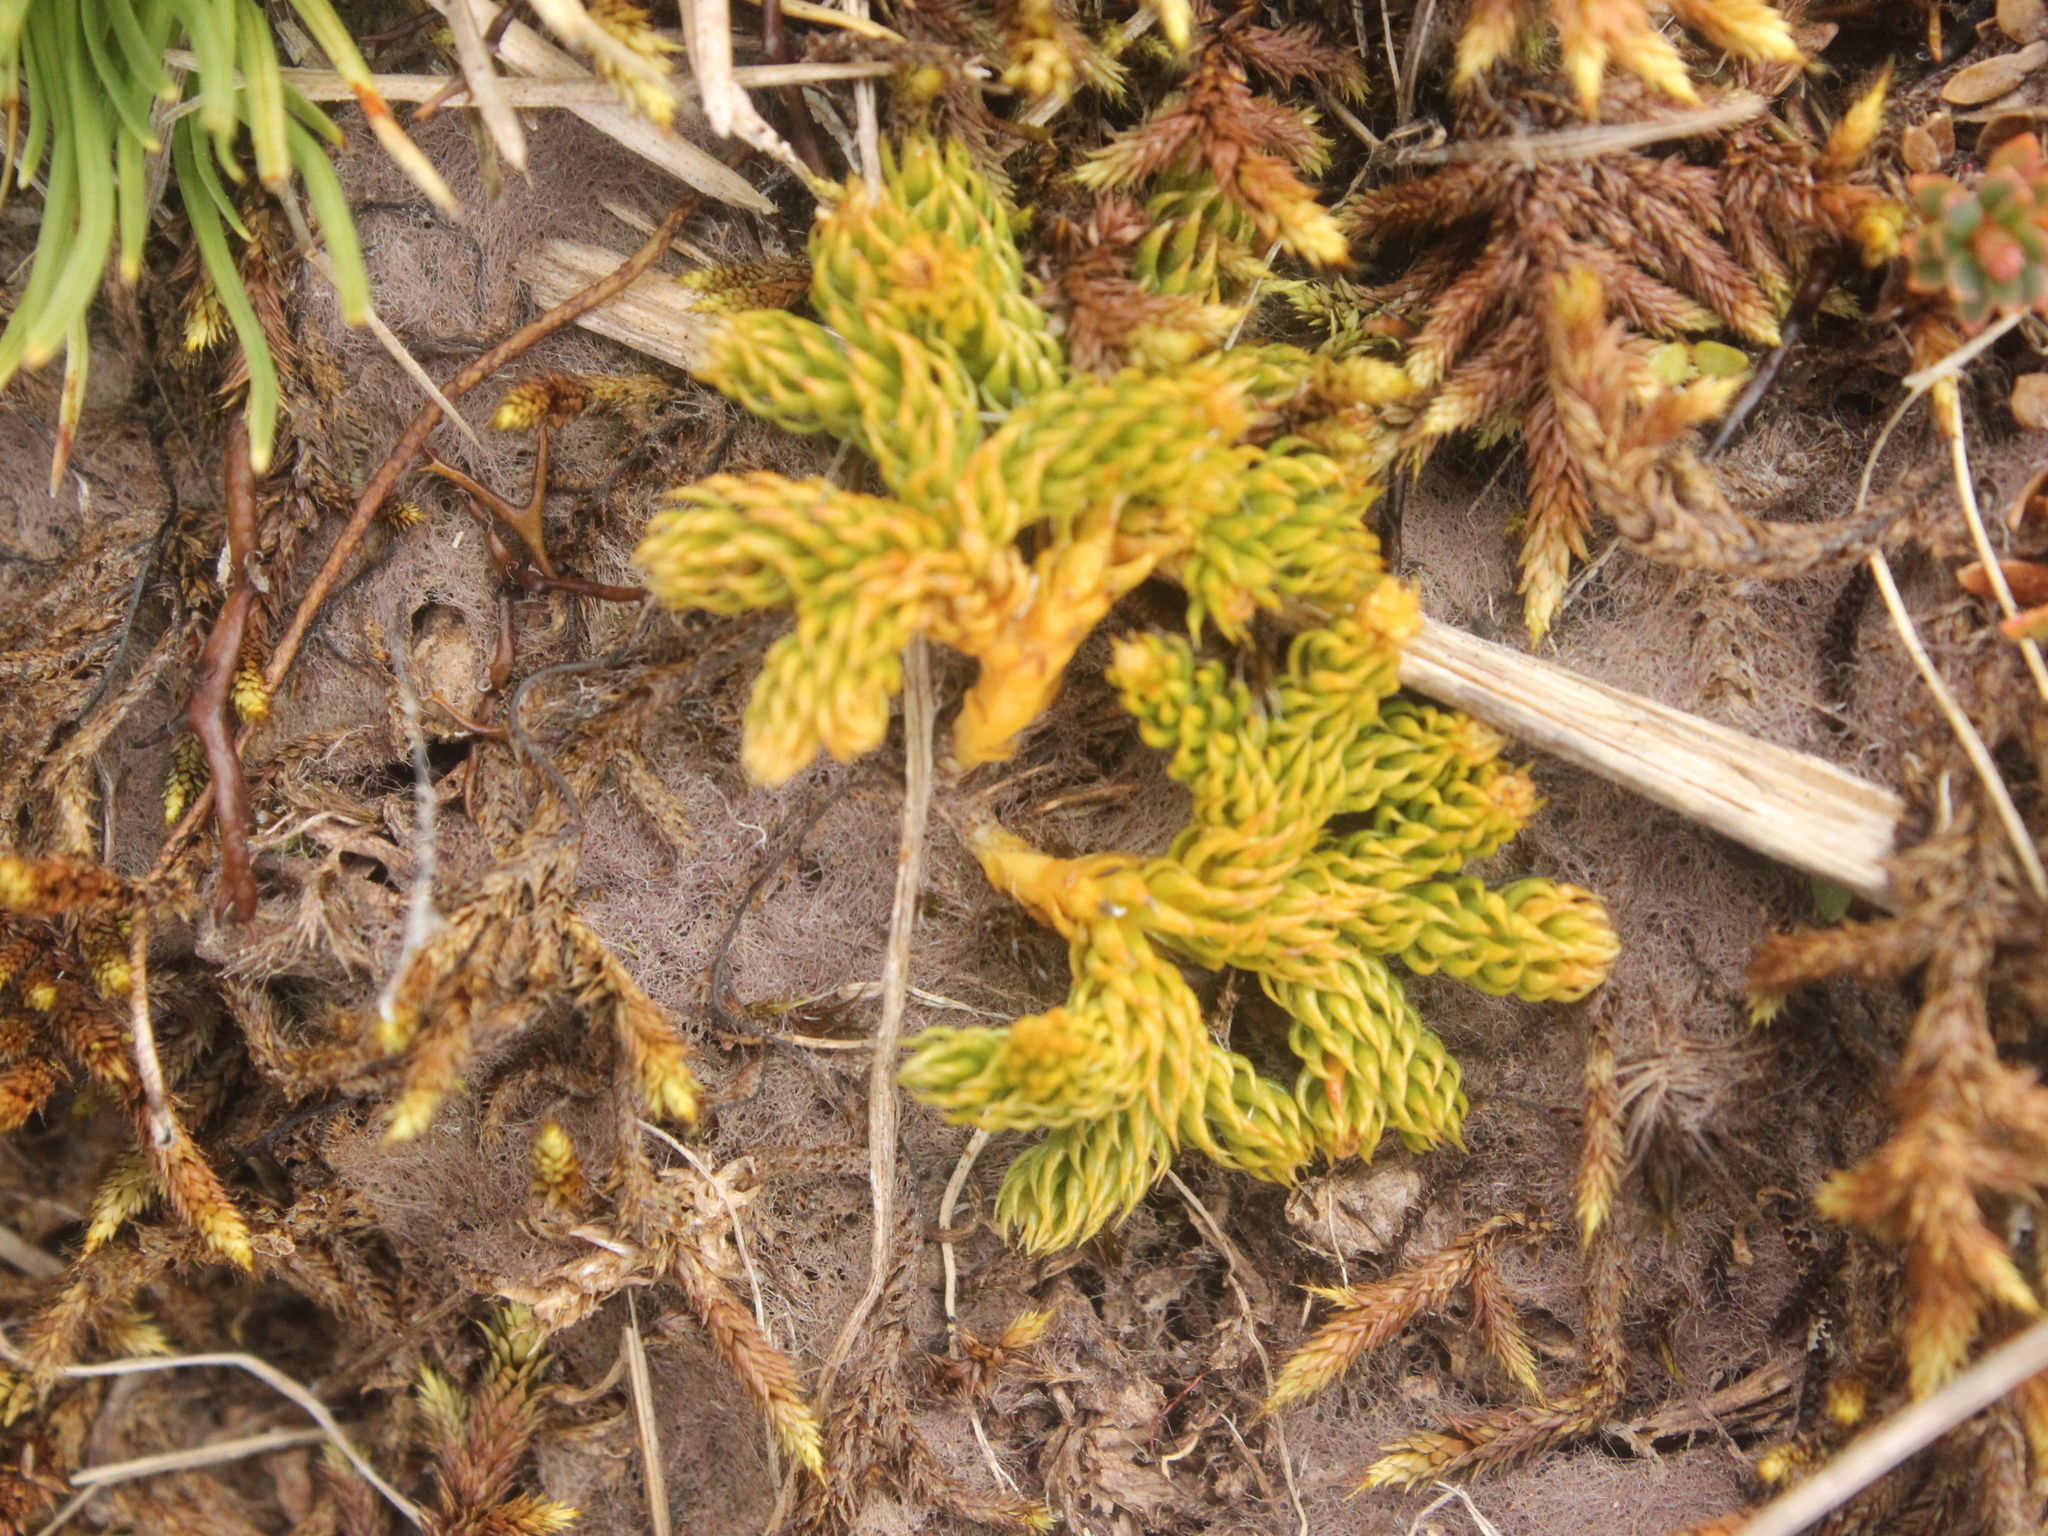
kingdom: Plantae
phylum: Tracheophyta
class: Lycopodiopsida
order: Lycopodiales
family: Lycopodiaceae
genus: Austrolycopodium
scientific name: Austrolycopodium fastigiatum
